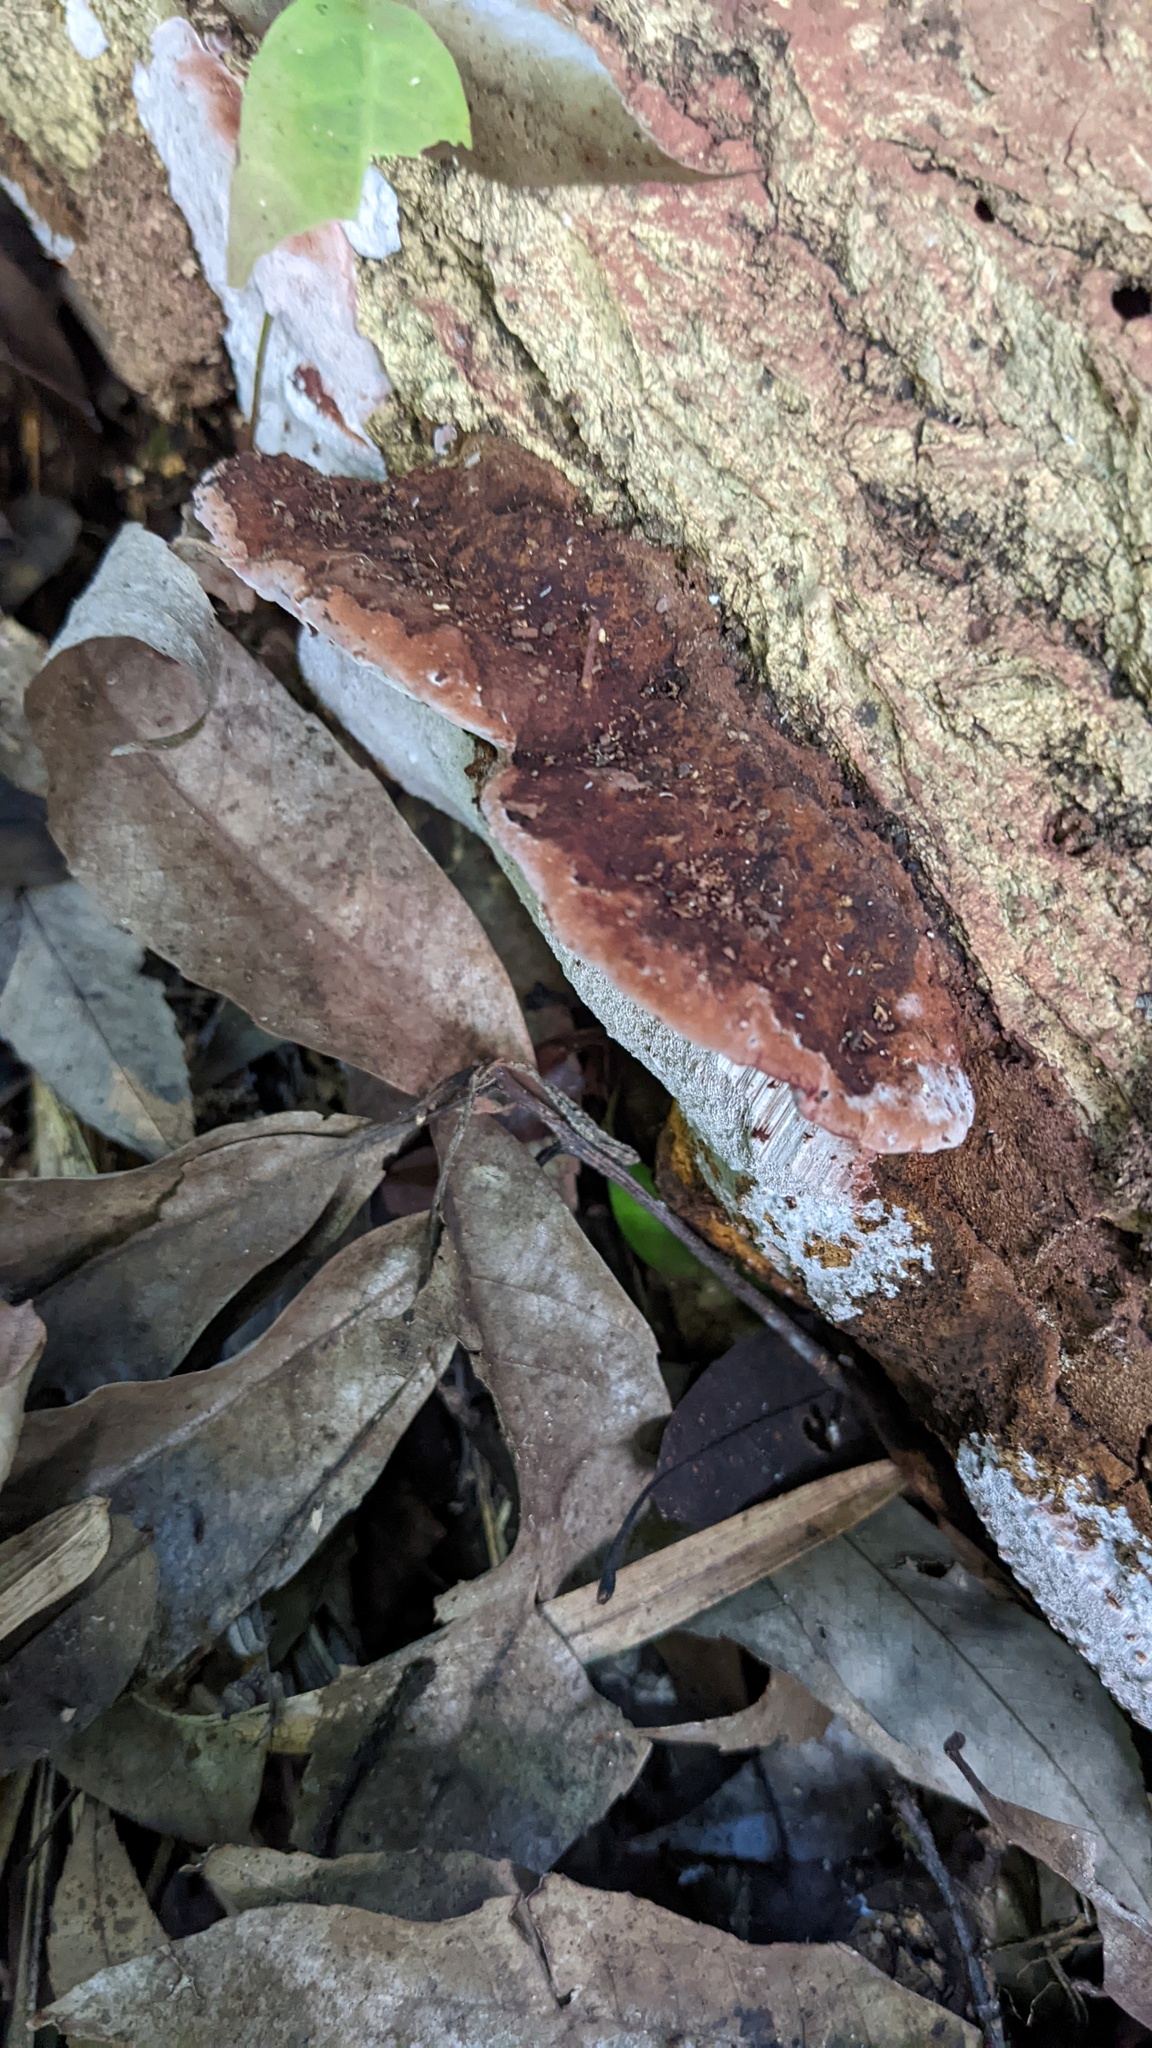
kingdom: Fungi
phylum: Basidiomycota
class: Agaricomycetes
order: Polyporales
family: Polyporaceae
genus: Abundisporus
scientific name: Abundisporus pubertatis
